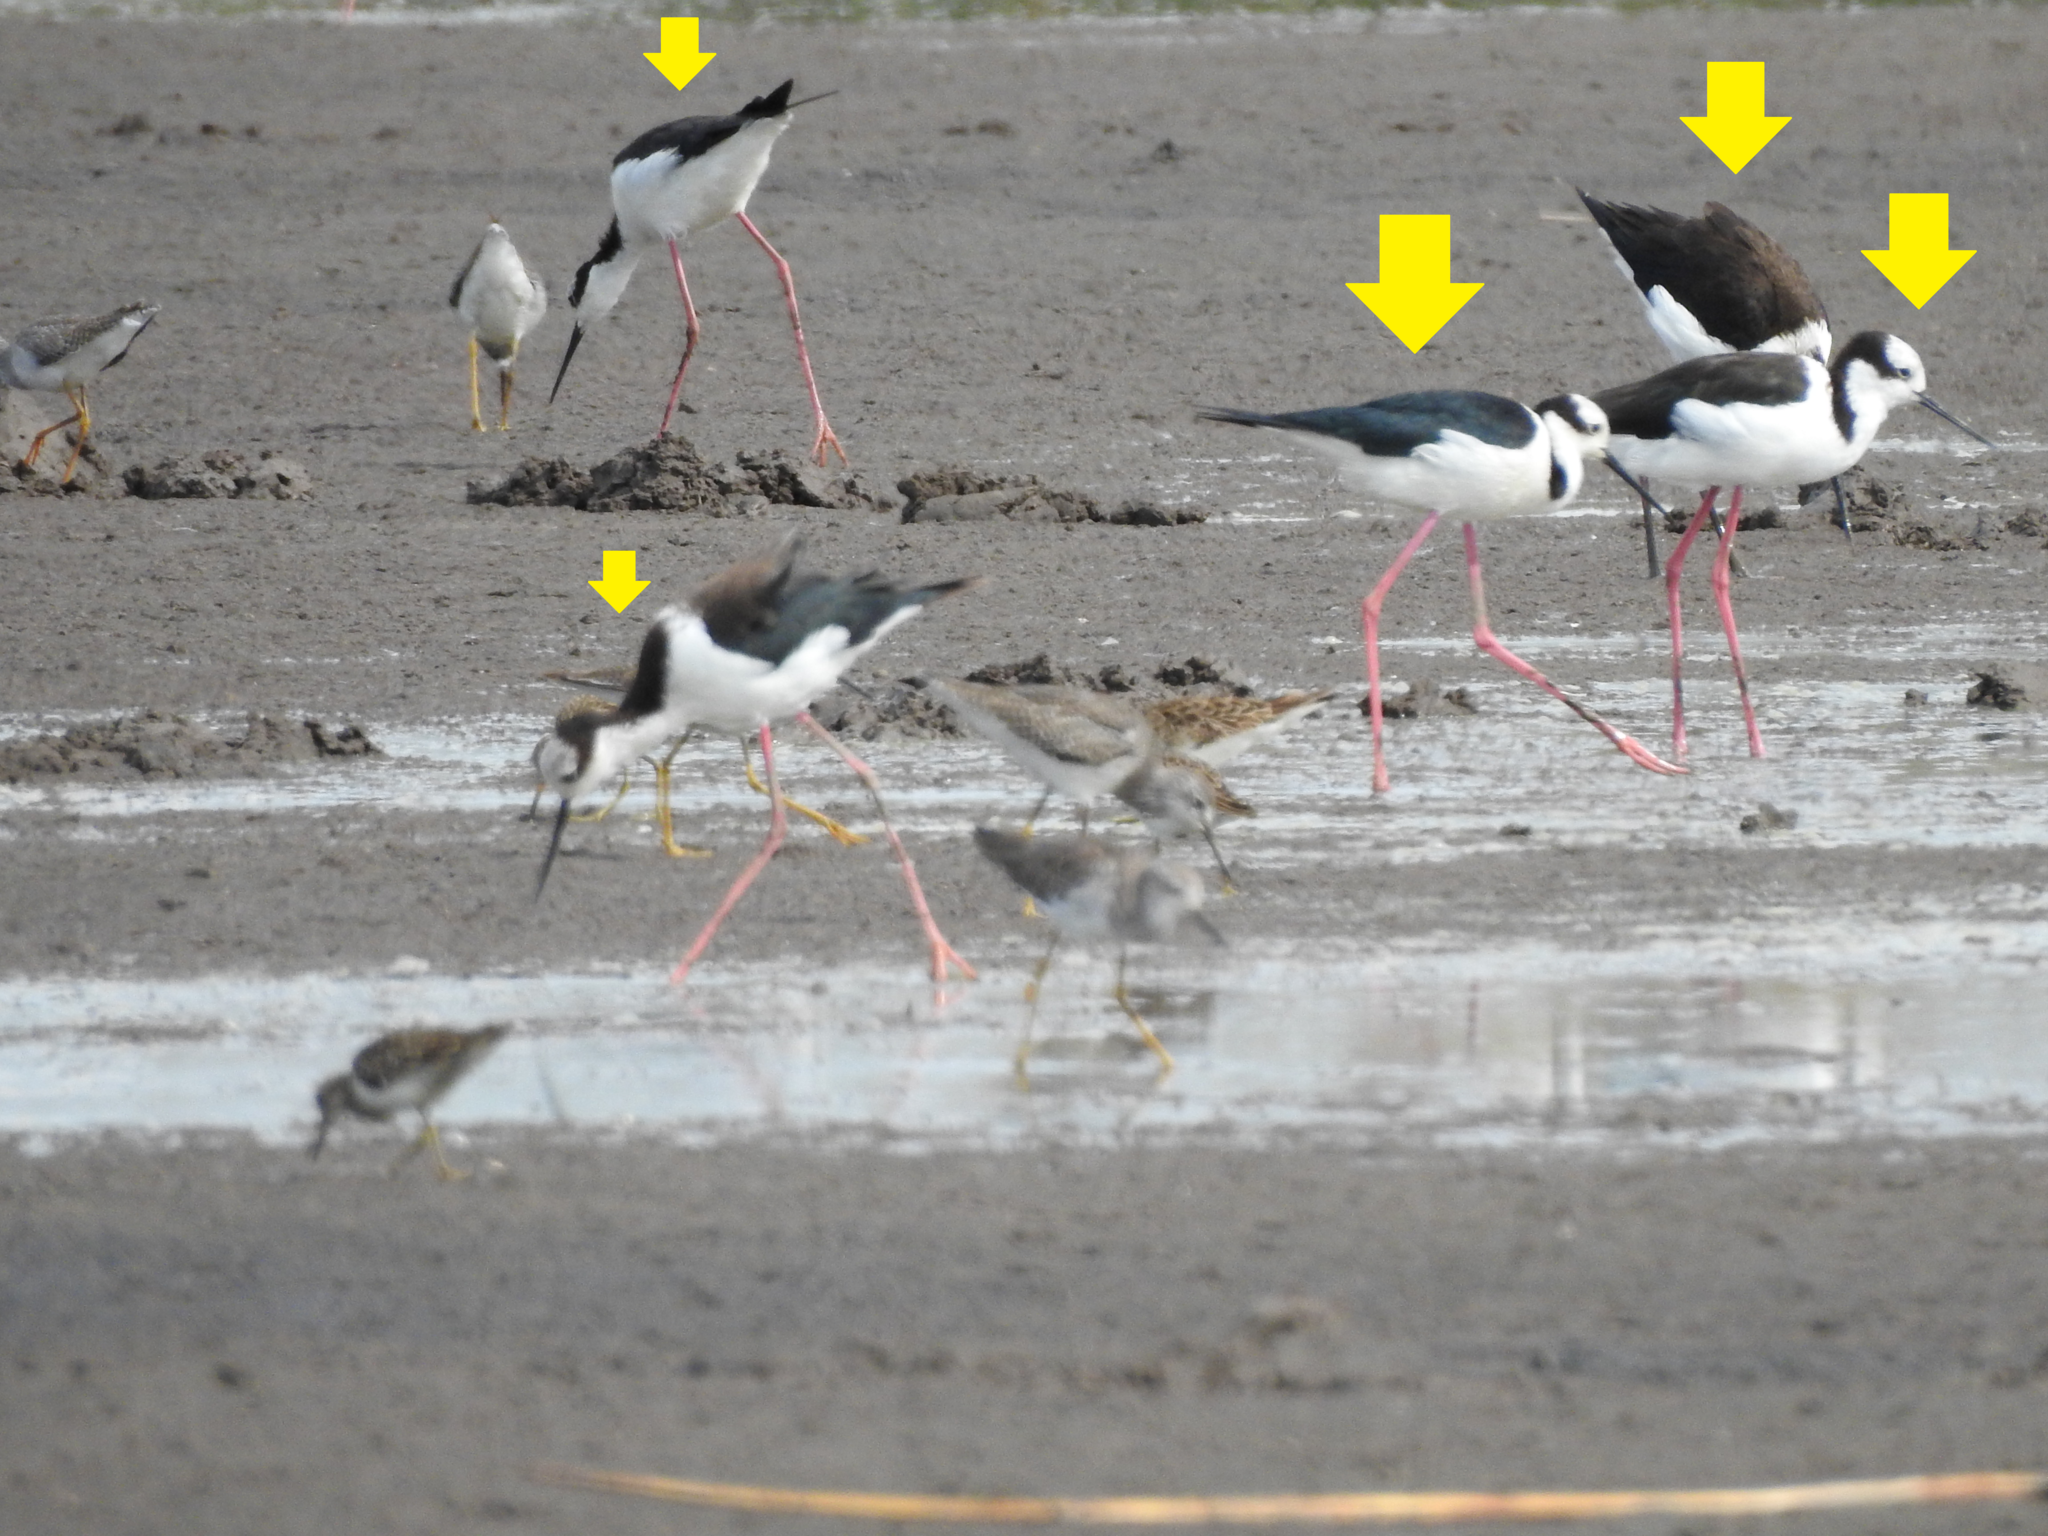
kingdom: Animalia
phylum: Chordata
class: Aves
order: Charadriiformes
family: Recurvirostridae
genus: Himantopus
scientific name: Himantopus mexicanus
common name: Black-necked stilt
